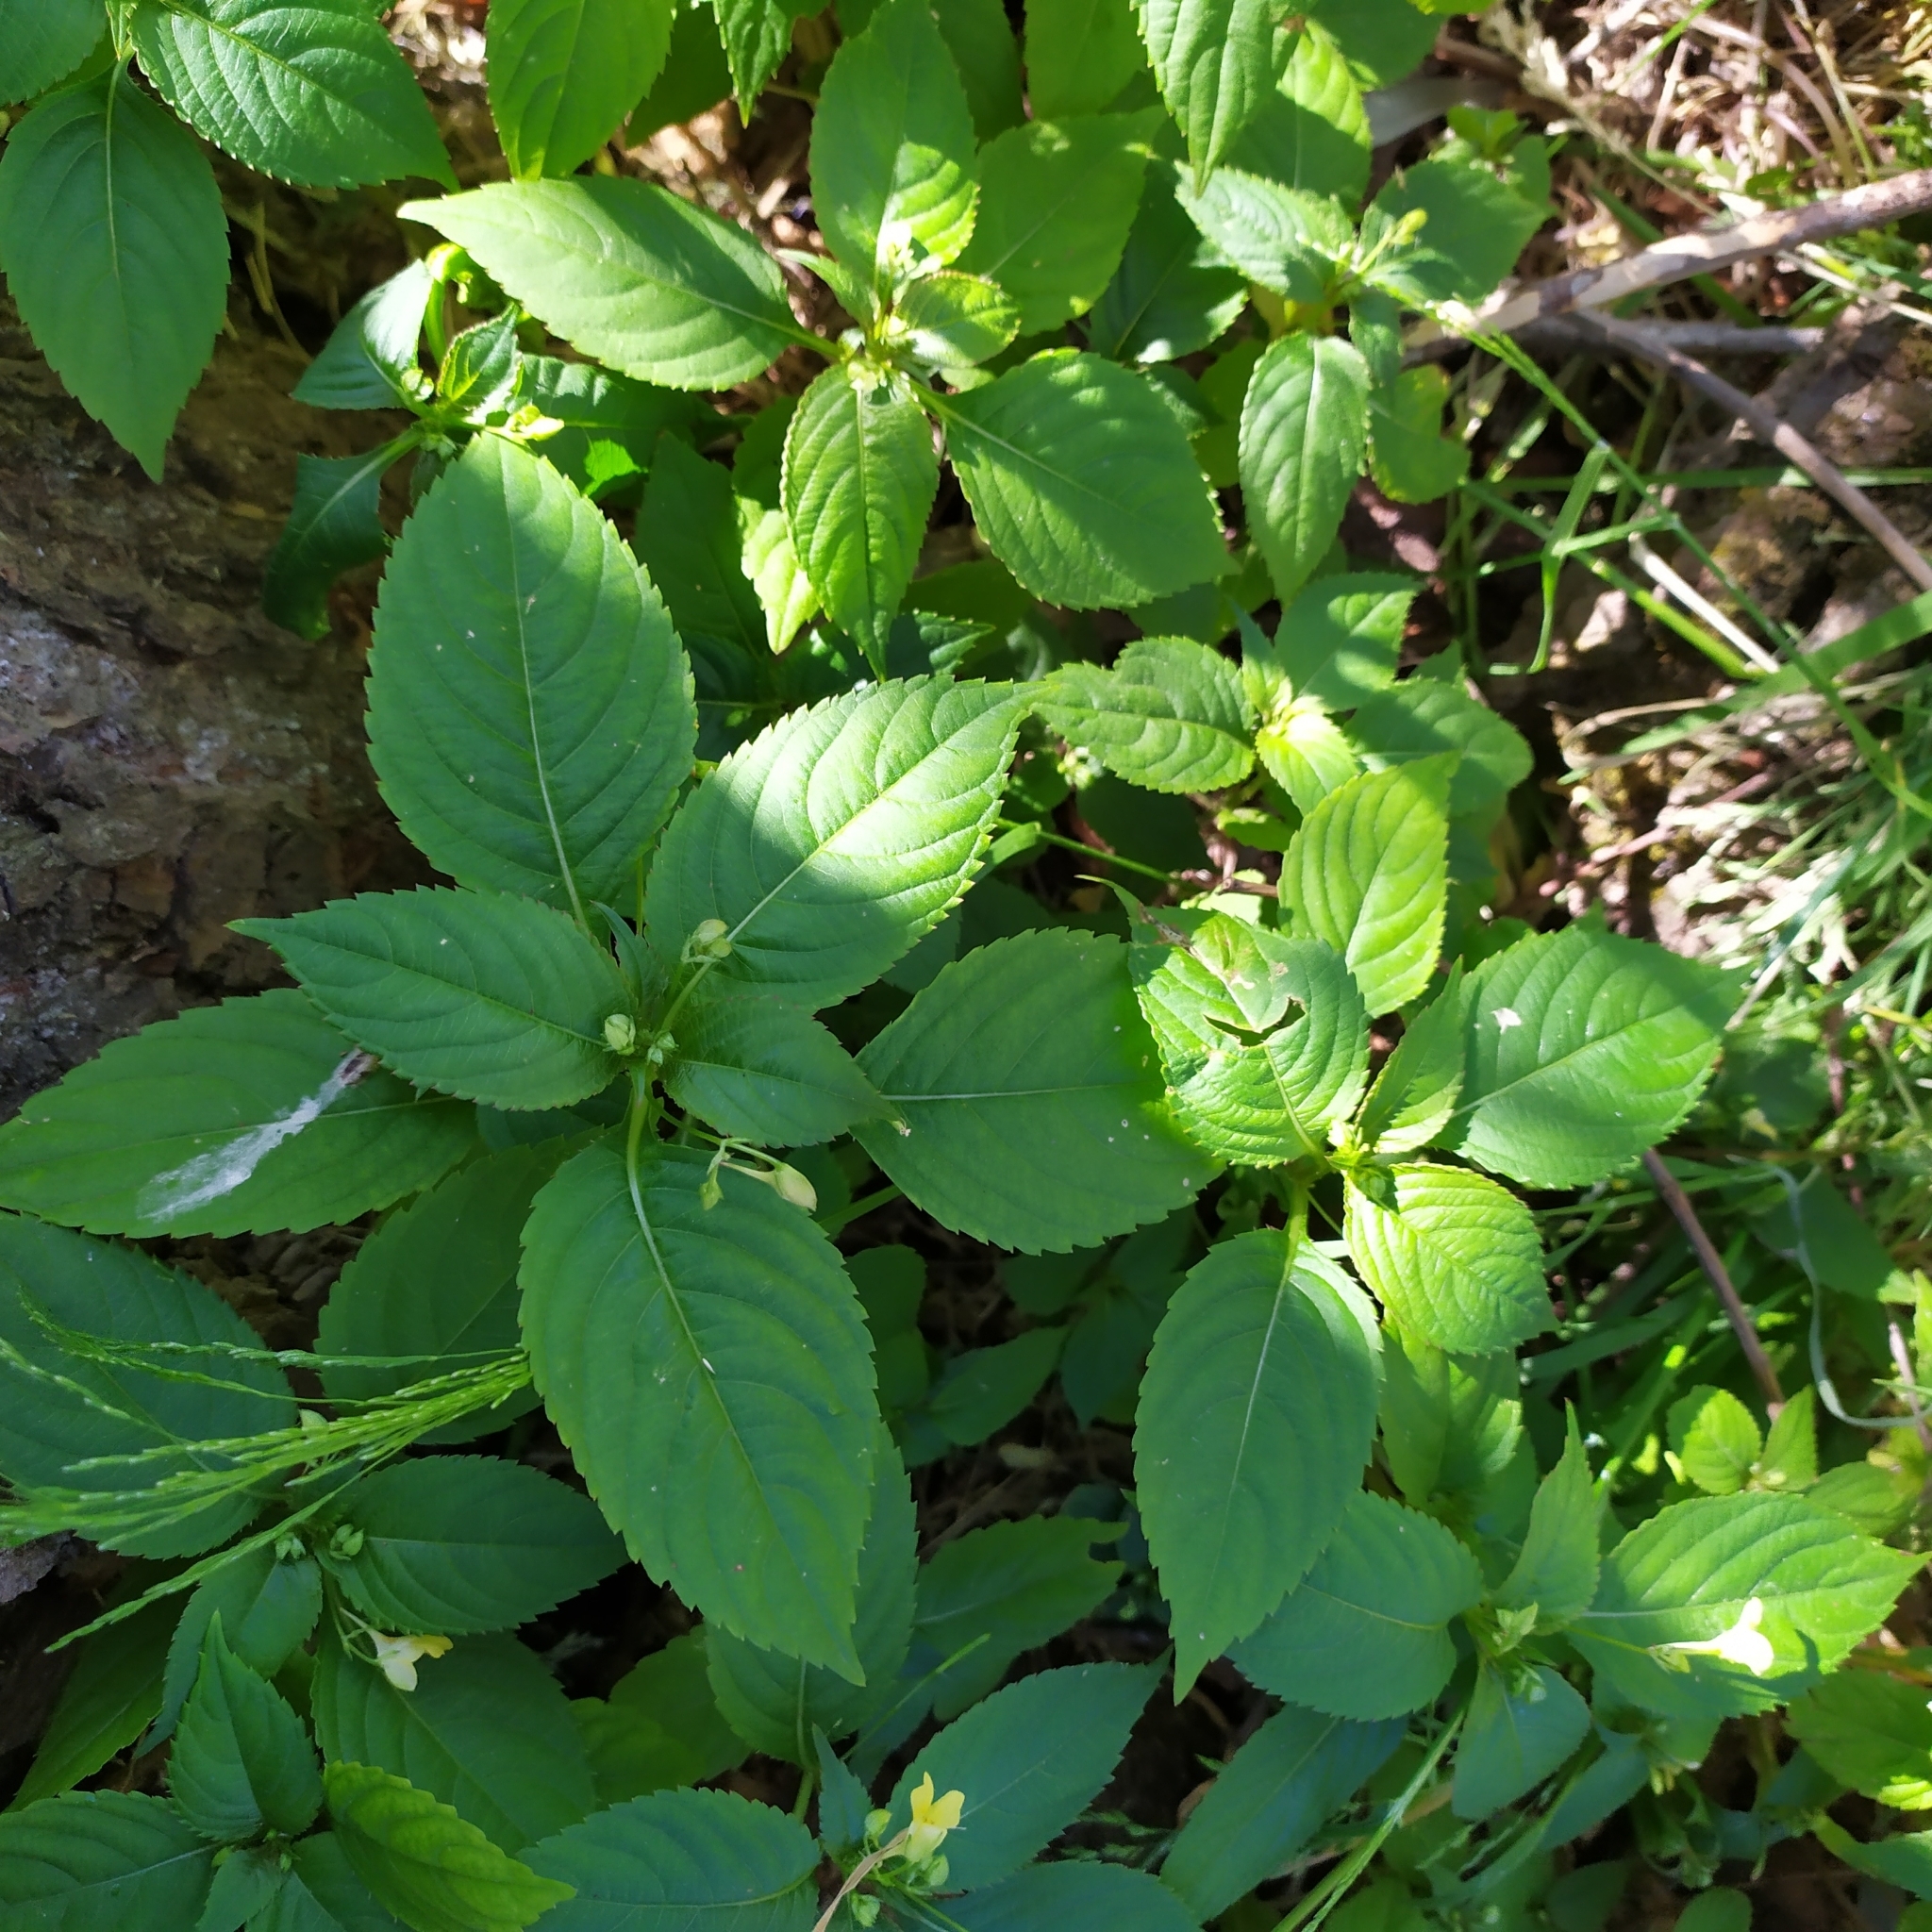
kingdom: Plantae
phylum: Tracheophyta
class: Magnoliopsida
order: Ericales
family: Balsaminaceae
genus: Impatiens
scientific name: Impatiens parviflora
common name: Small balsam
